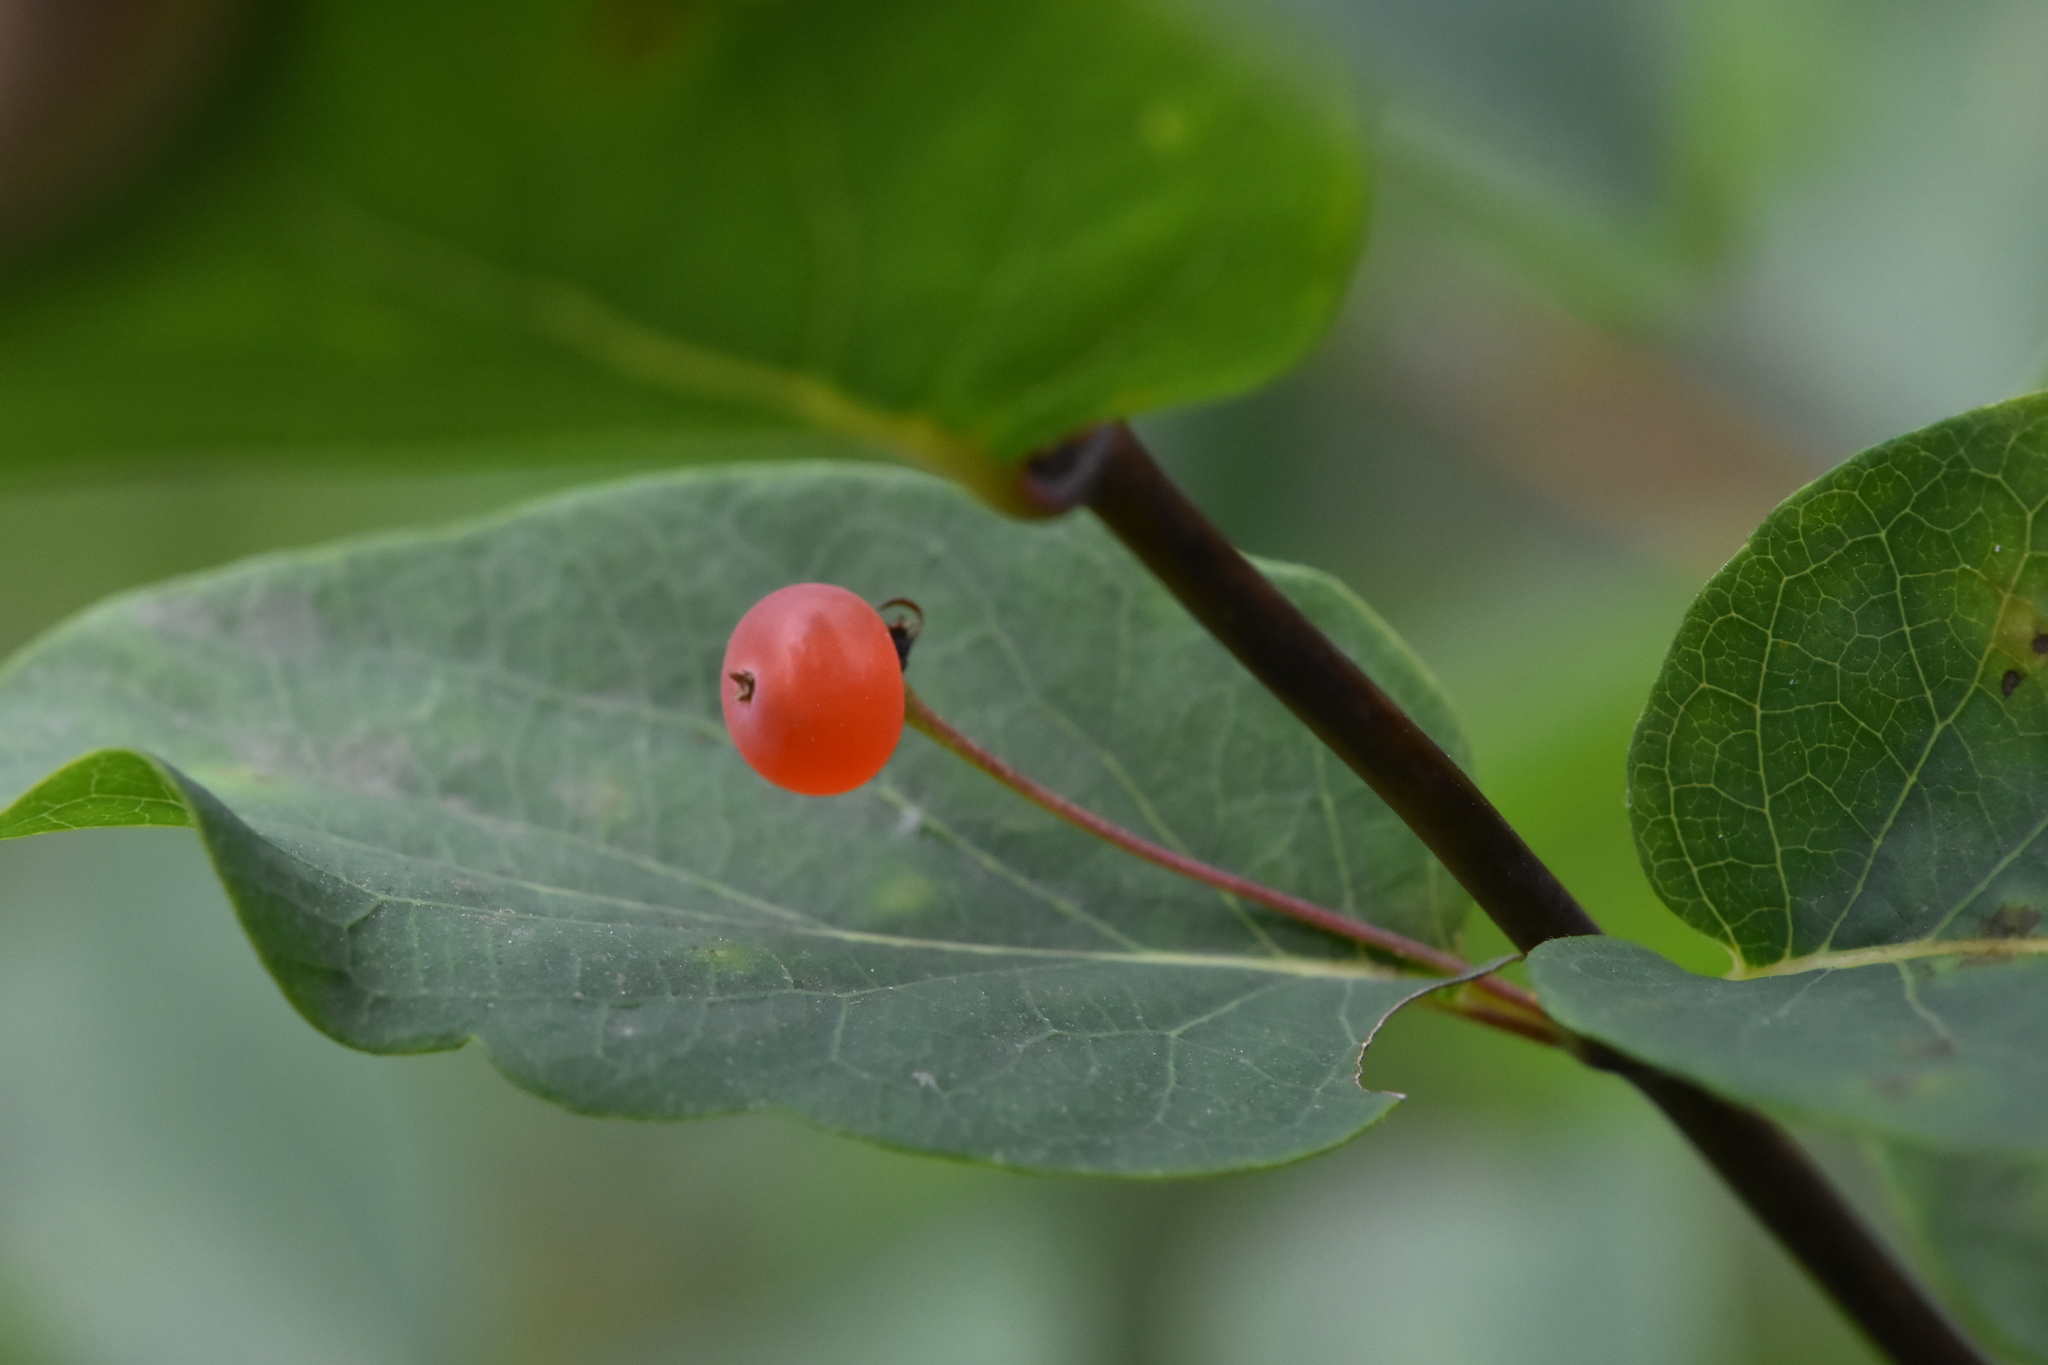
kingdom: Plantae
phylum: Tracheophyta
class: Magnoliopsida
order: Dipsacales
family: Caprifoliaceae
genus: Lonicera
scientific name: Lonicera tatarica
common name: Tatarian honeysuckle
